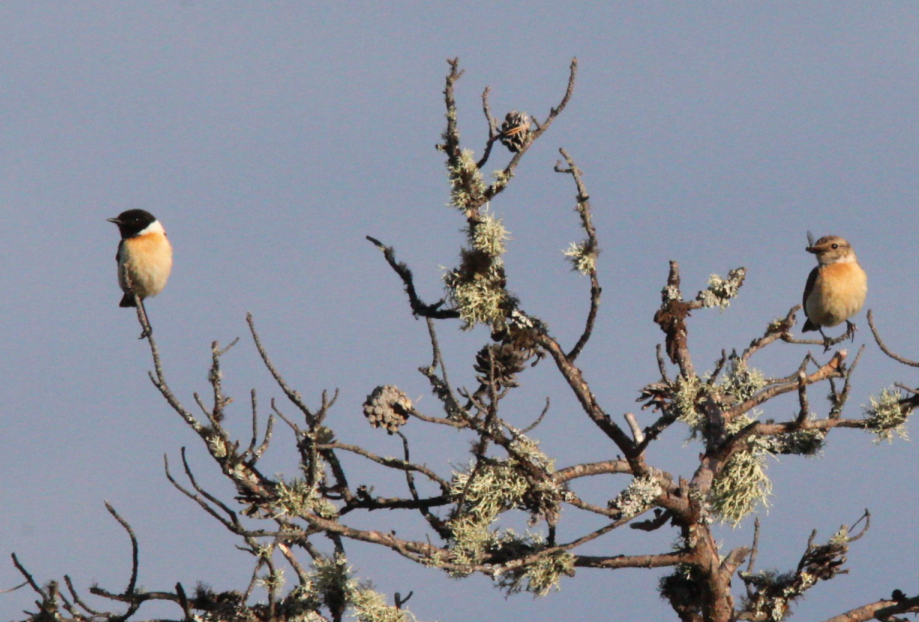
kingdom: Animalia
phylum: Chordata
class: Aves
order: Passeriformes
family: Muscicapidae
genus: Saxicola
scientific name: Saxicola maurus
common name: Siberian stonechat
